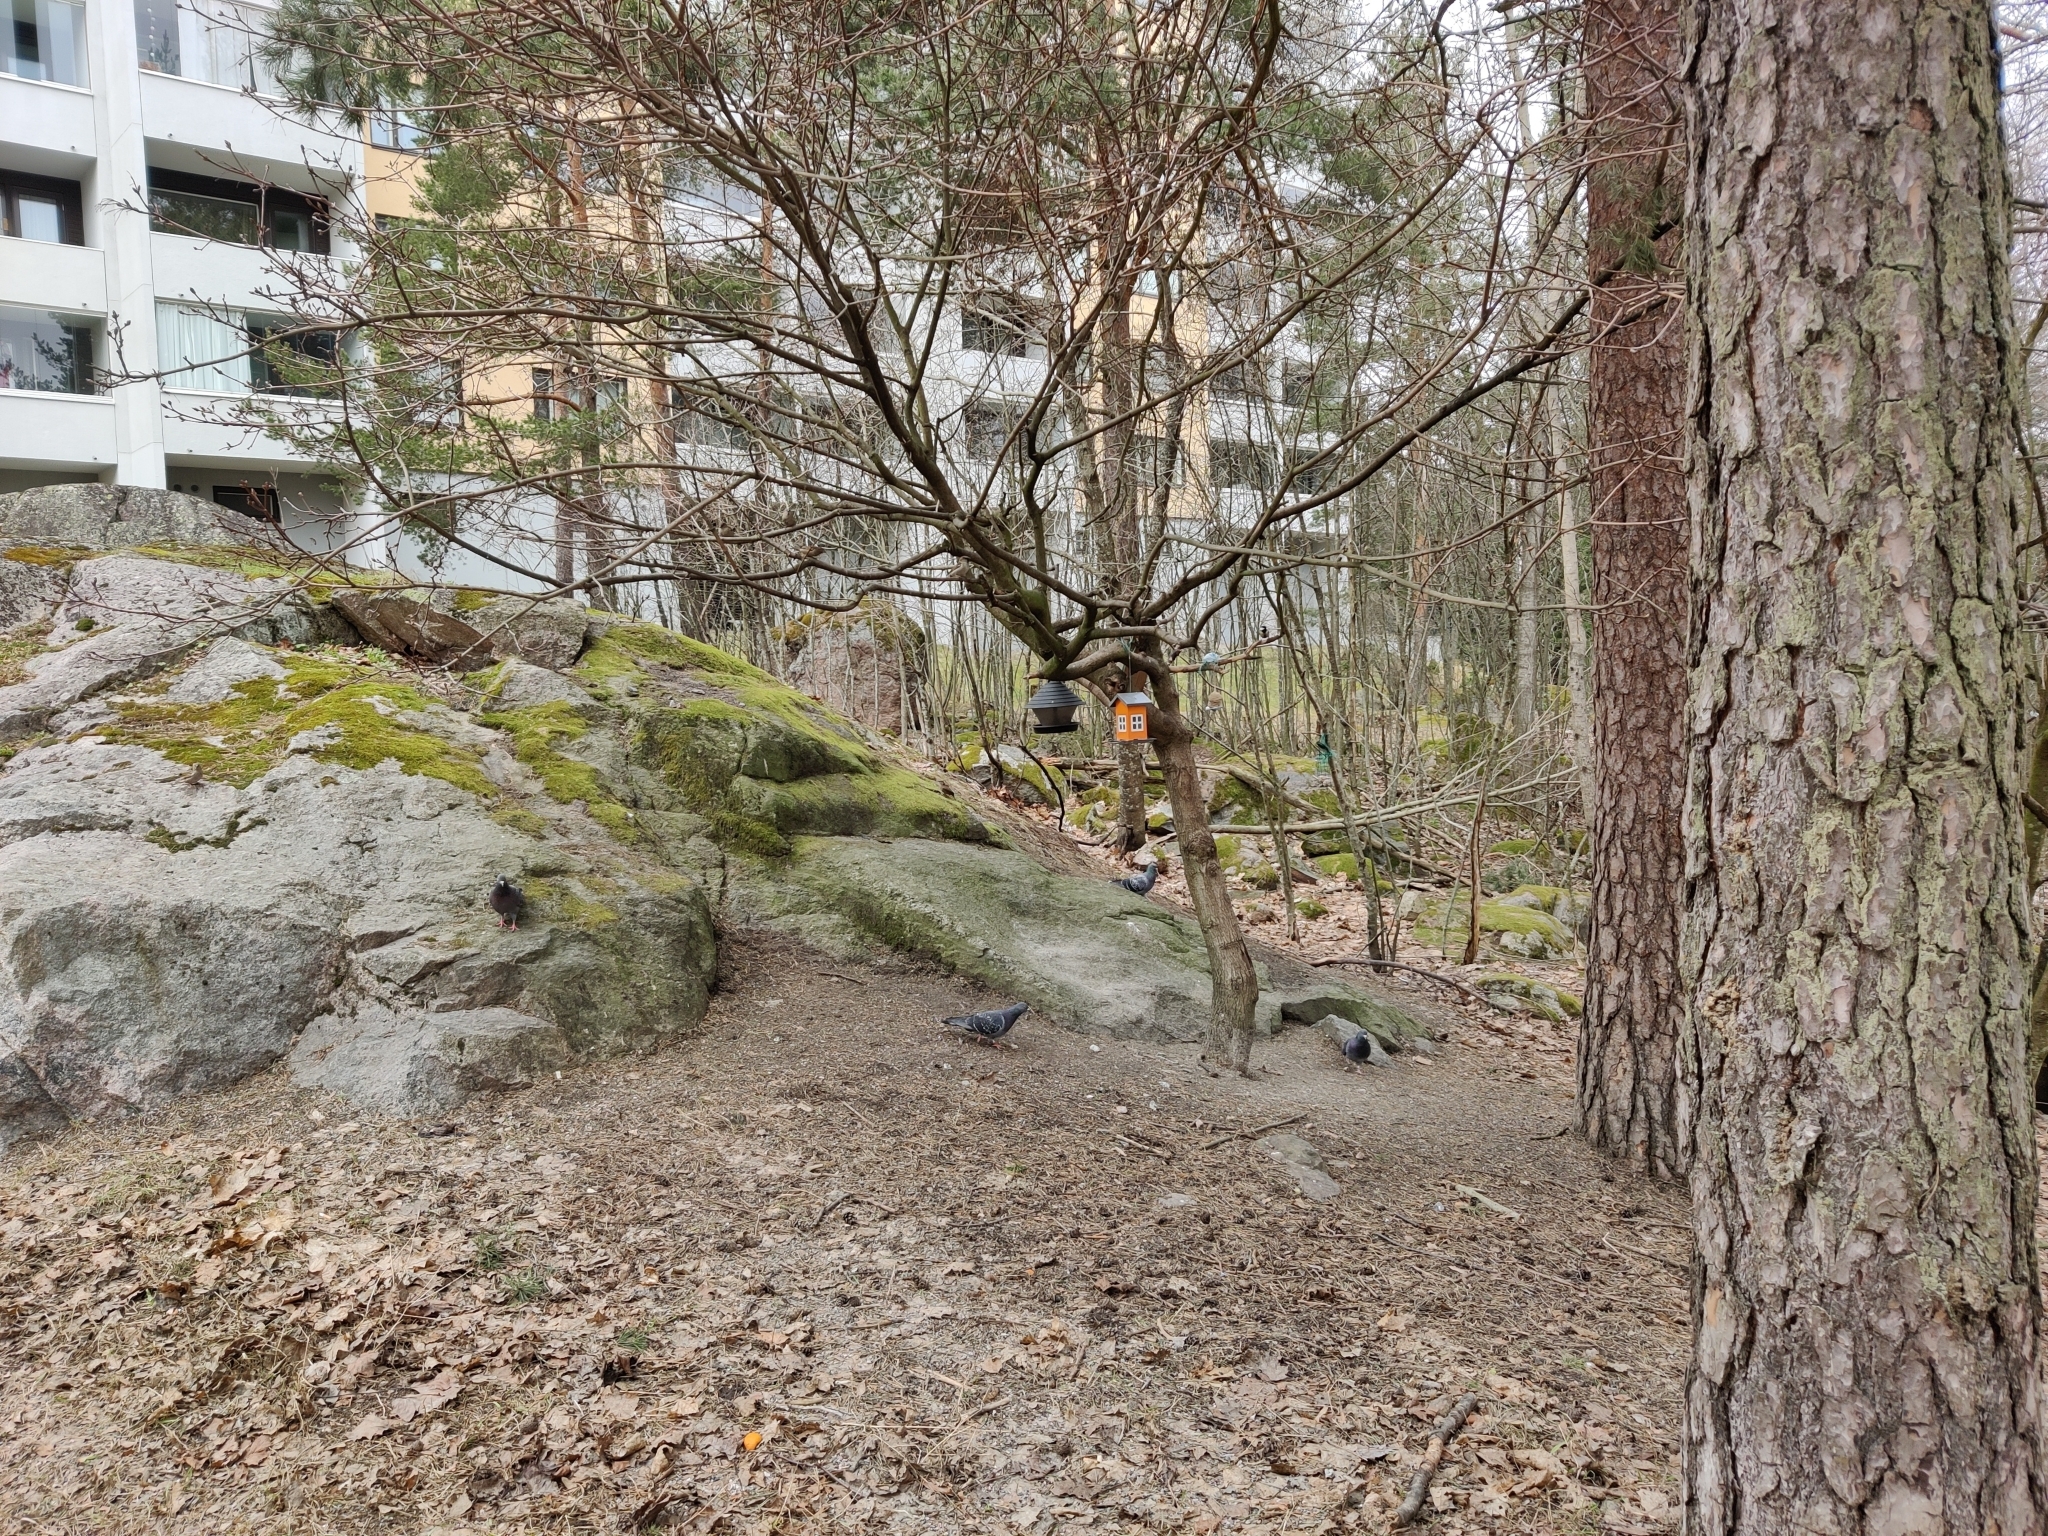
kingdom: Animalia
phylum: Chordata
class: Aves
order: Columbiformes
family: Columbidae
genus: Columba
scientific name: Columba livia
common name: Rock pigeon
